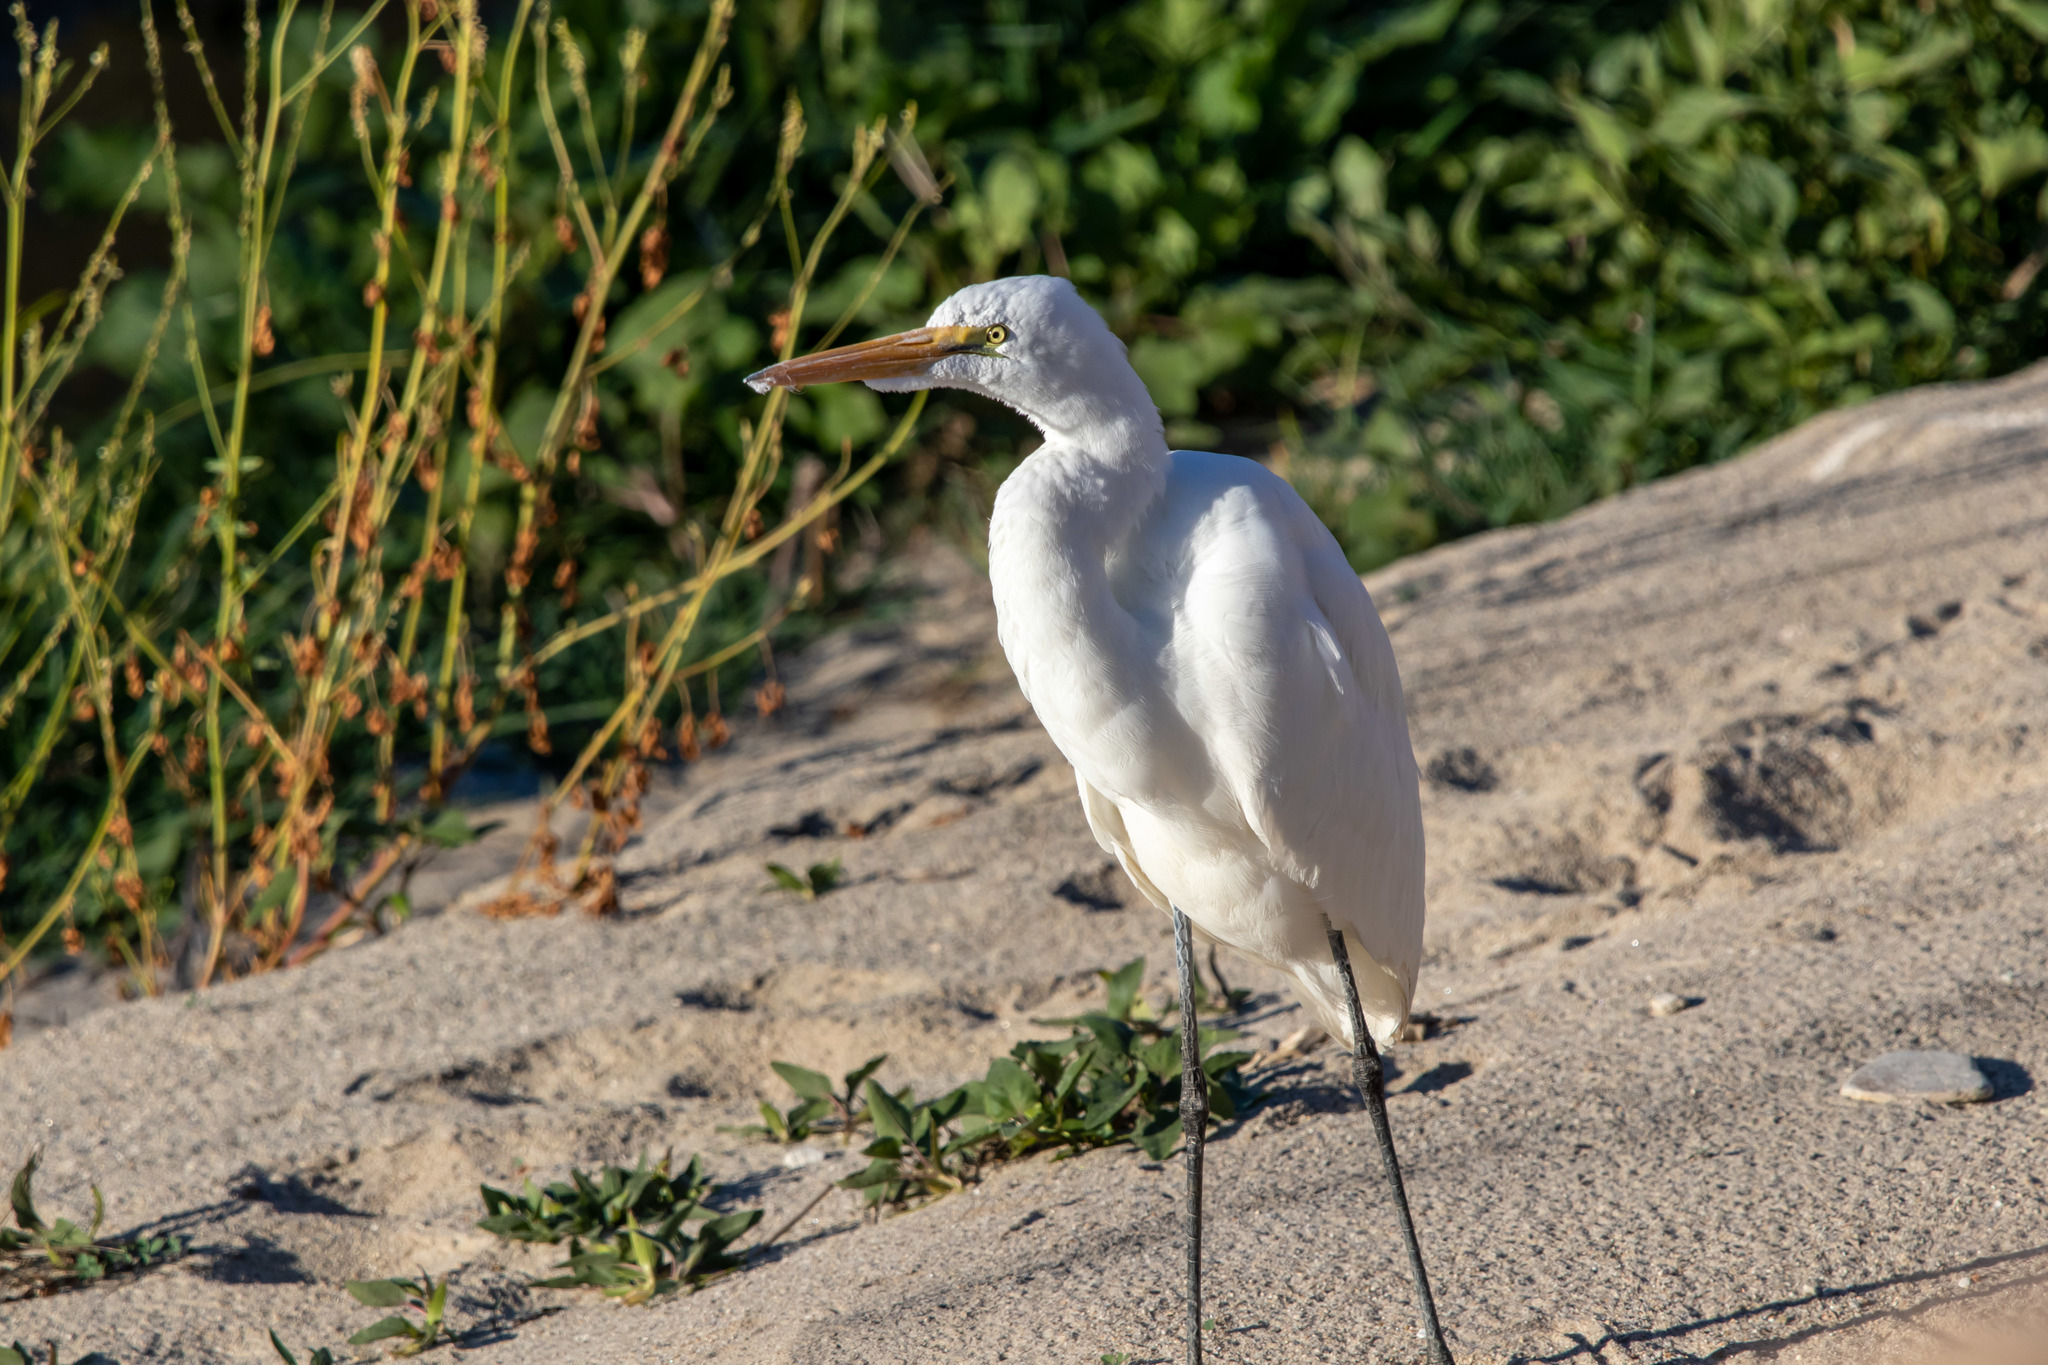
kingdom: Animalia
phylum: Chordata
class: Aves
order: Pelecaniformes
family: Ardeidae
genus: Ardea
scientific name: Ardea alba
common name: Great egret
